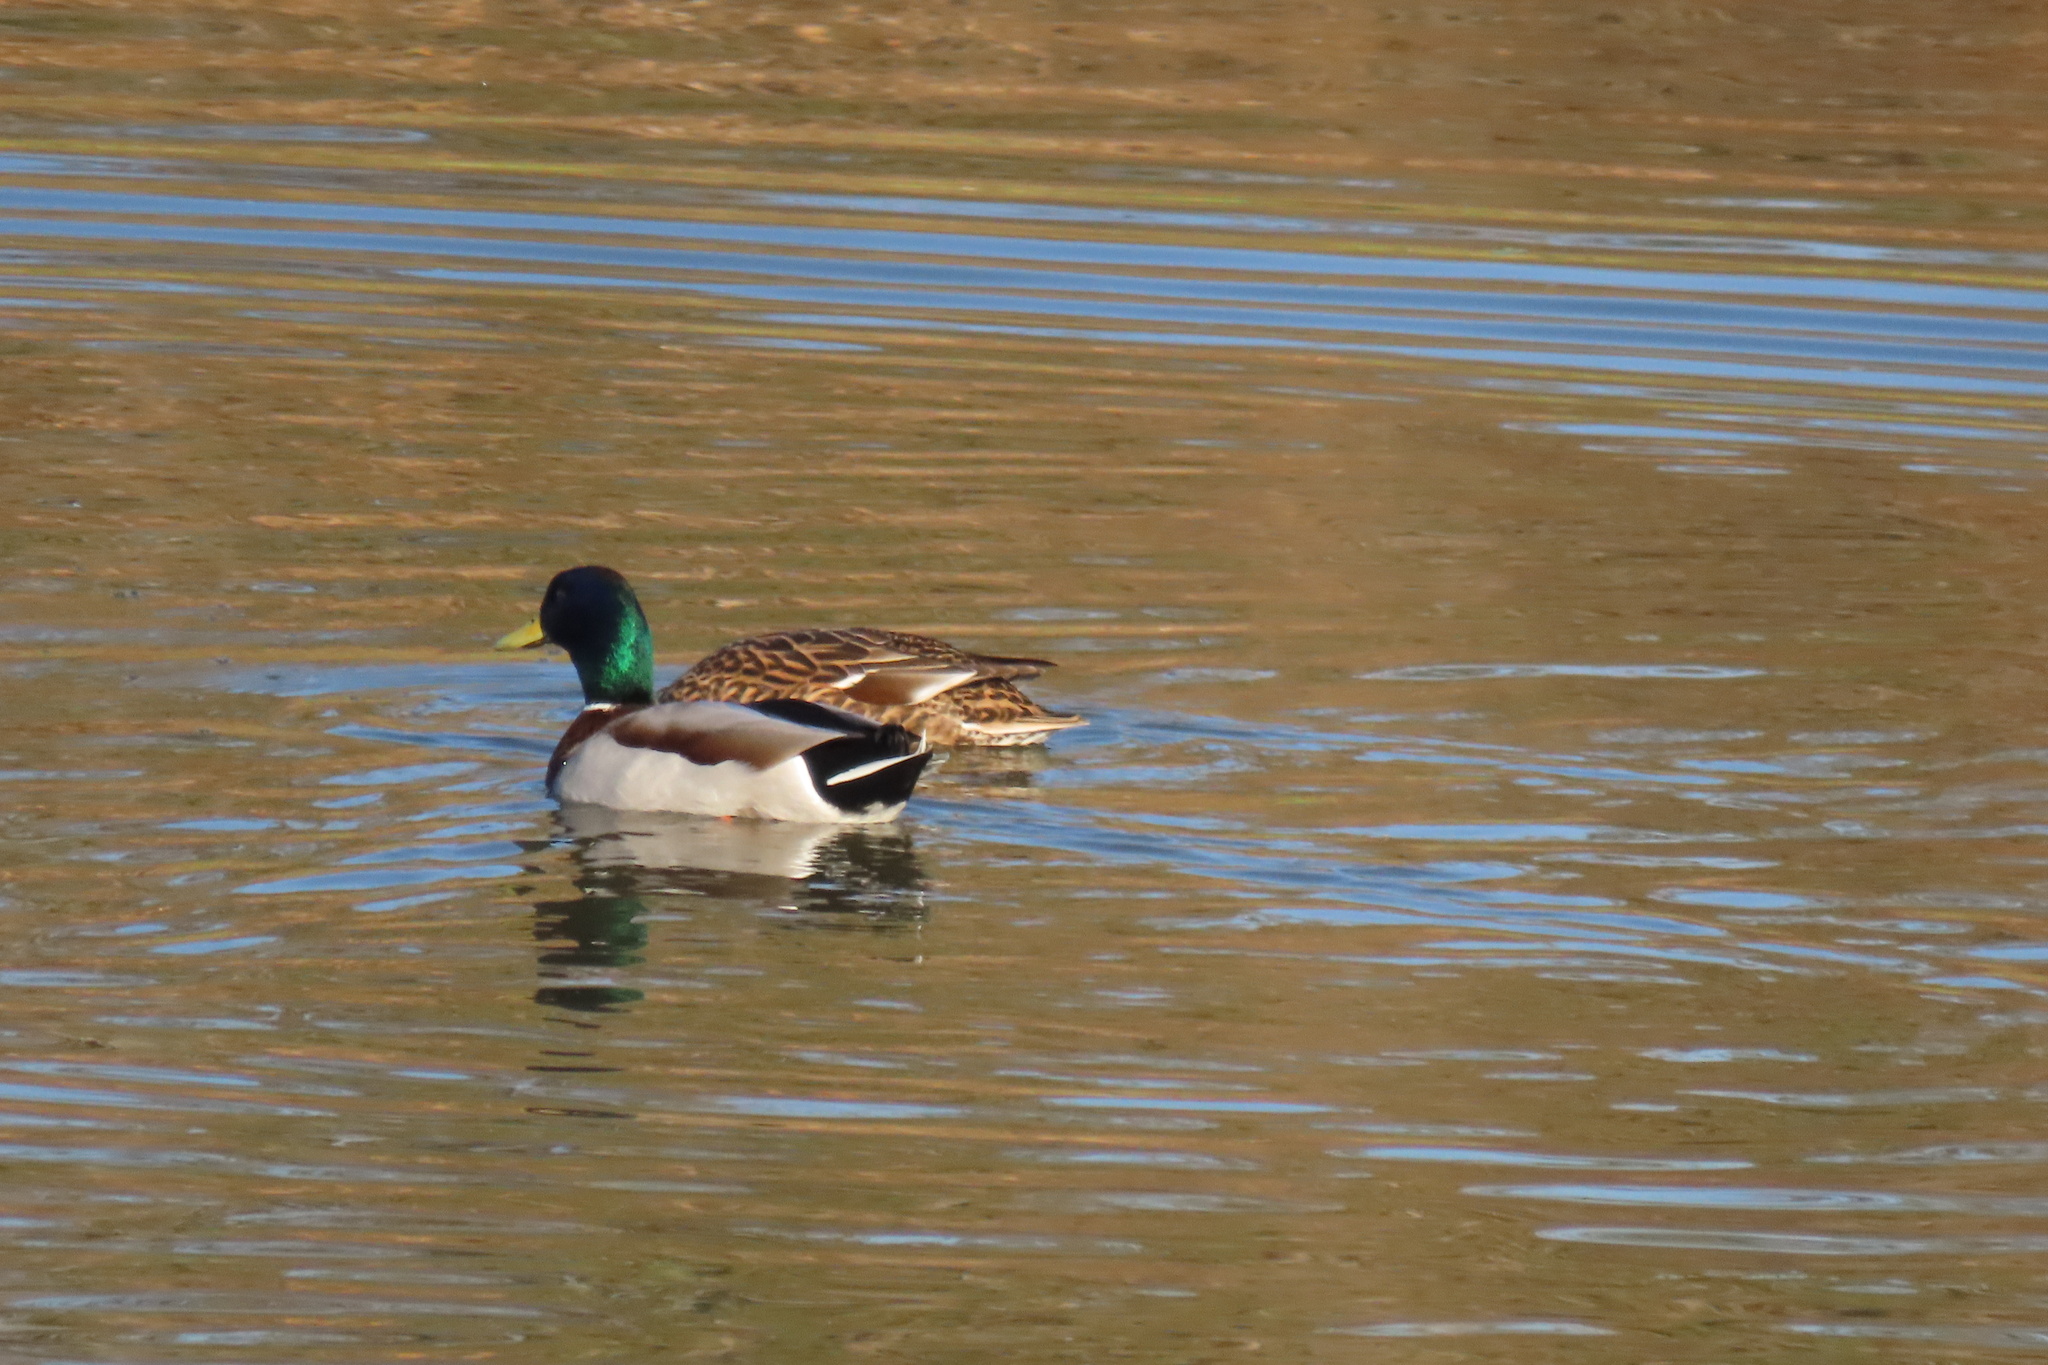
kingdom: Animalia
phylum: Chordata
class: Aves
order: Anseriformes
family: Anatidae
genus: Anas
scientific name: Anas platyrhynchos
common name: Mallard
